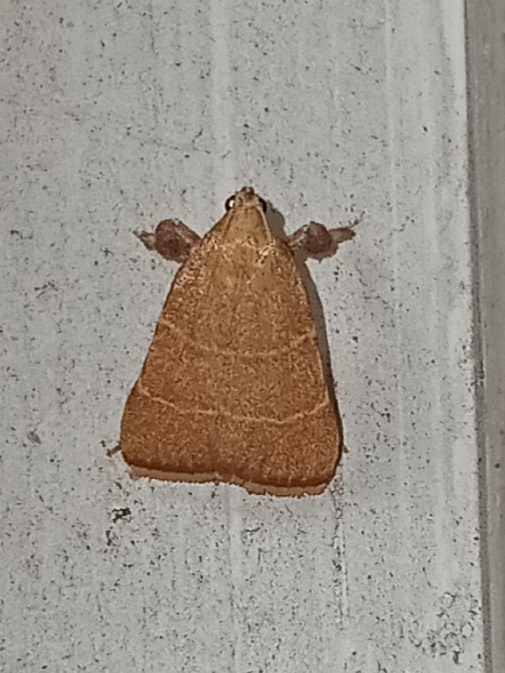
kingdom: Animalia
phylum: Arthropoda
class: Insecta
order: Lepidoptera
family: Pyralidae
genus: Parachma
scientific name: Parachma ochracealis
